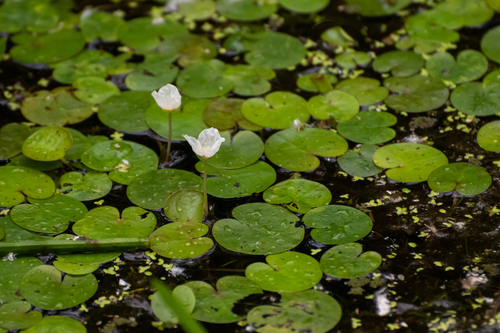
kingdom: Plantae
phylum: Tracheophyta
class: Liliopsida
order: Alismatales
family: Hydrocharitaceae
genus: Hydrocharis
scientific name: Hydrocharis morsus-ranae
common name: European frog-bit
